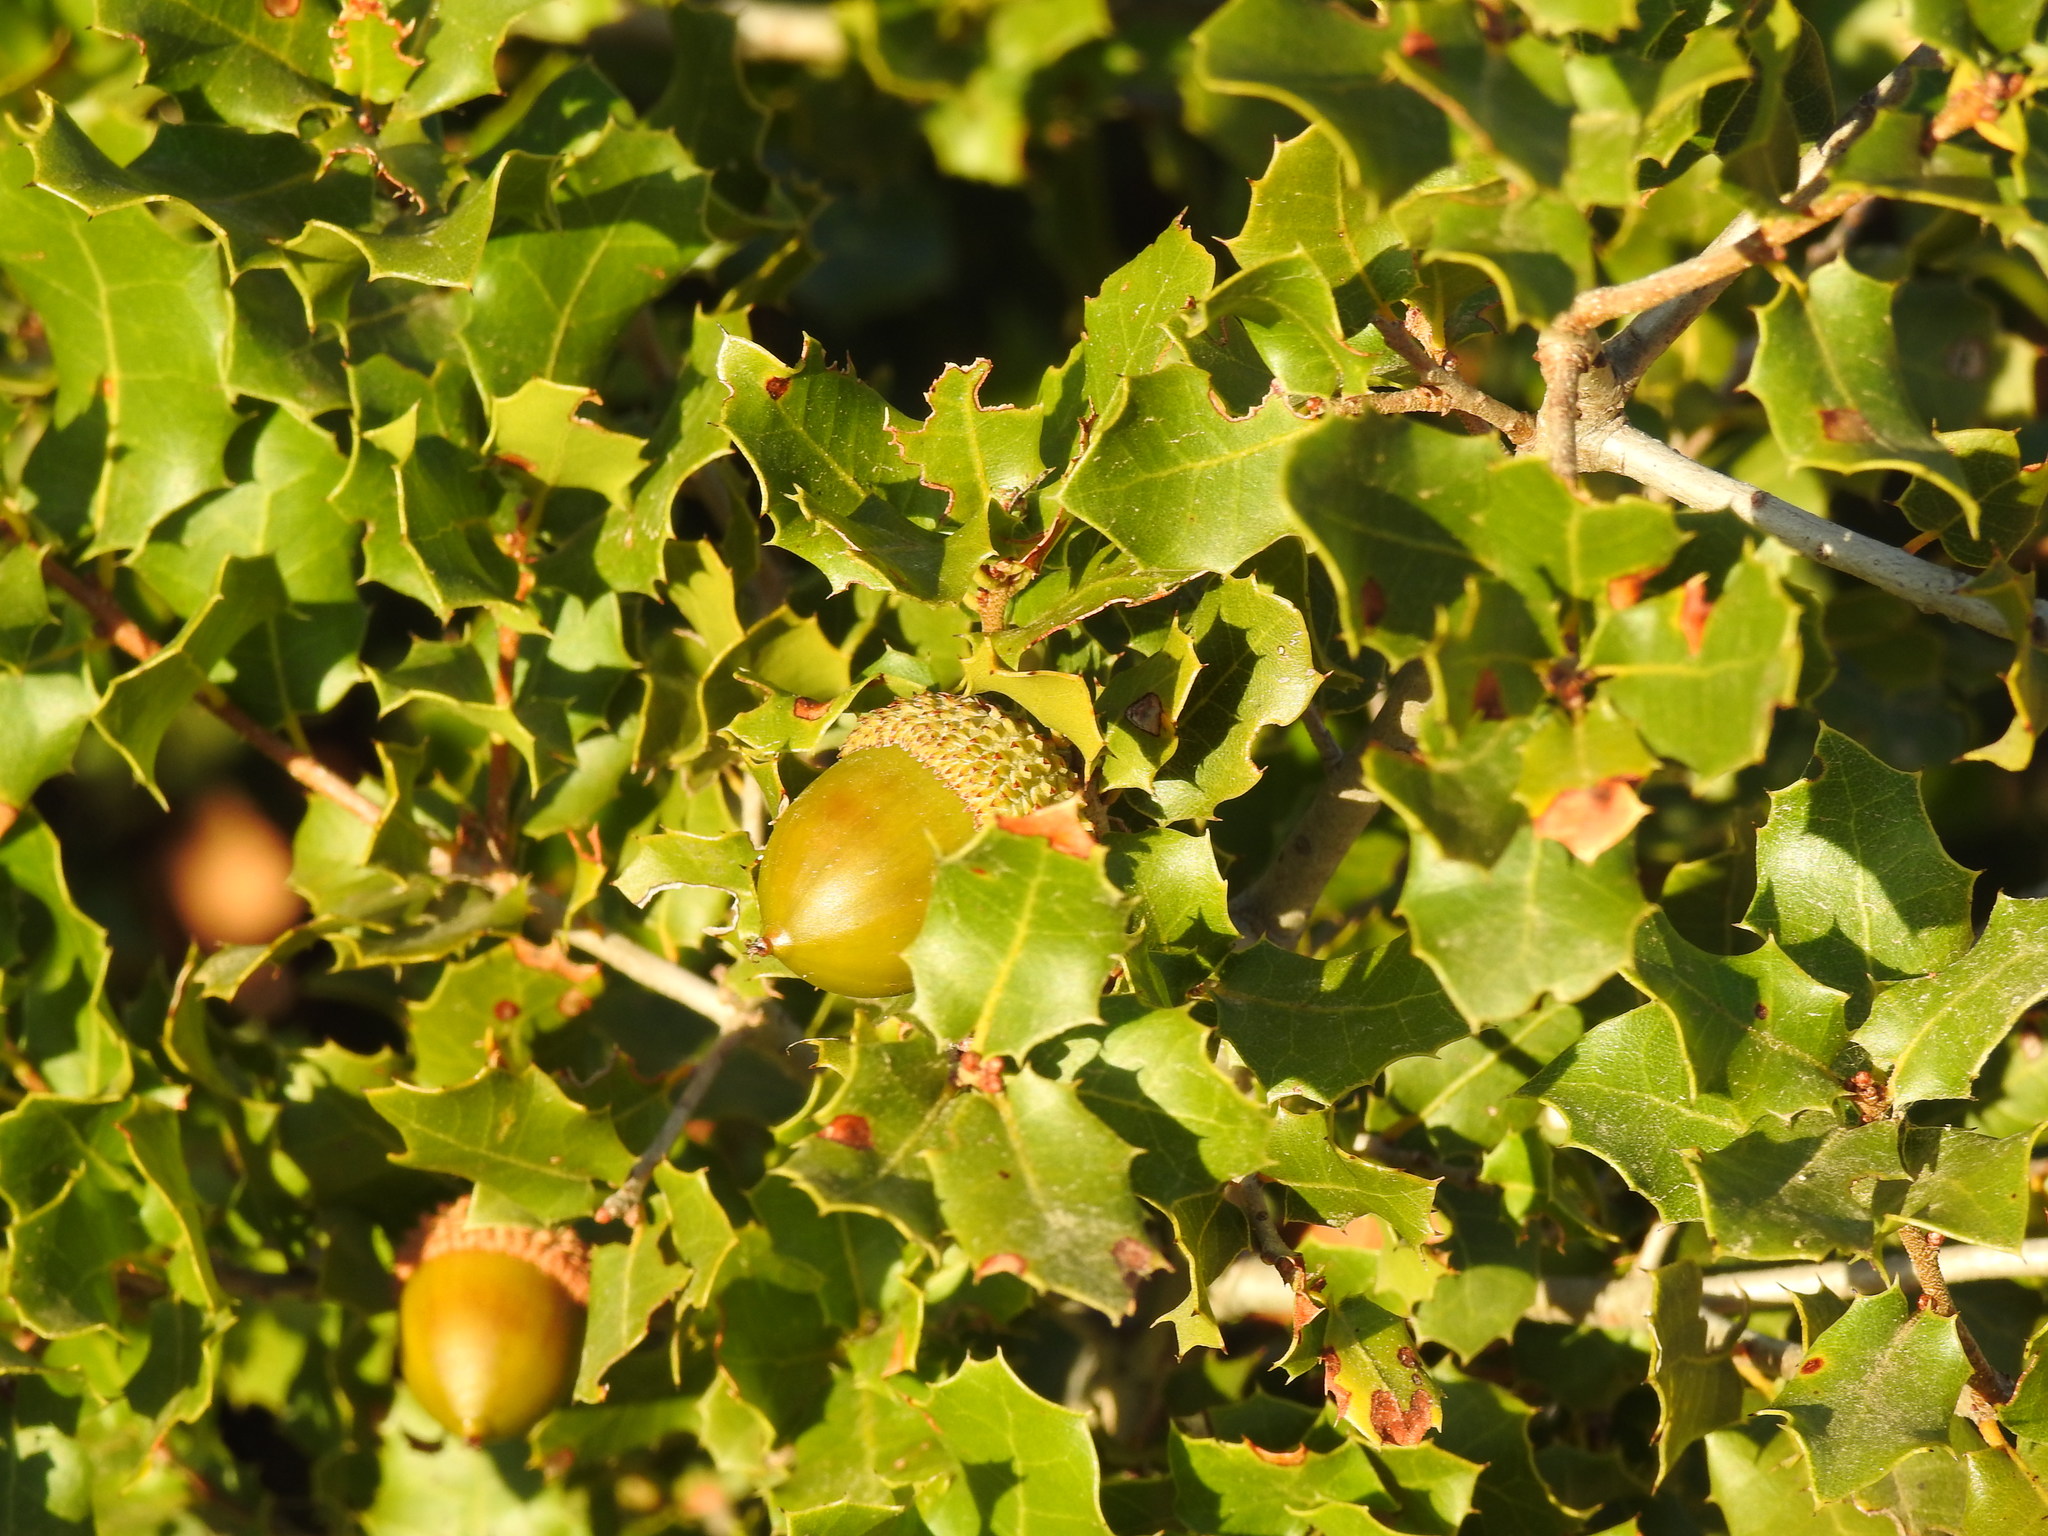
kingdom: Plantae
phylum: Tracheophyta
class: Magnoliopsida
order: Fagales
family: Fagaceae
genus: Quercus
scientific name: Quercus coccifera
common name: Kermes oak
